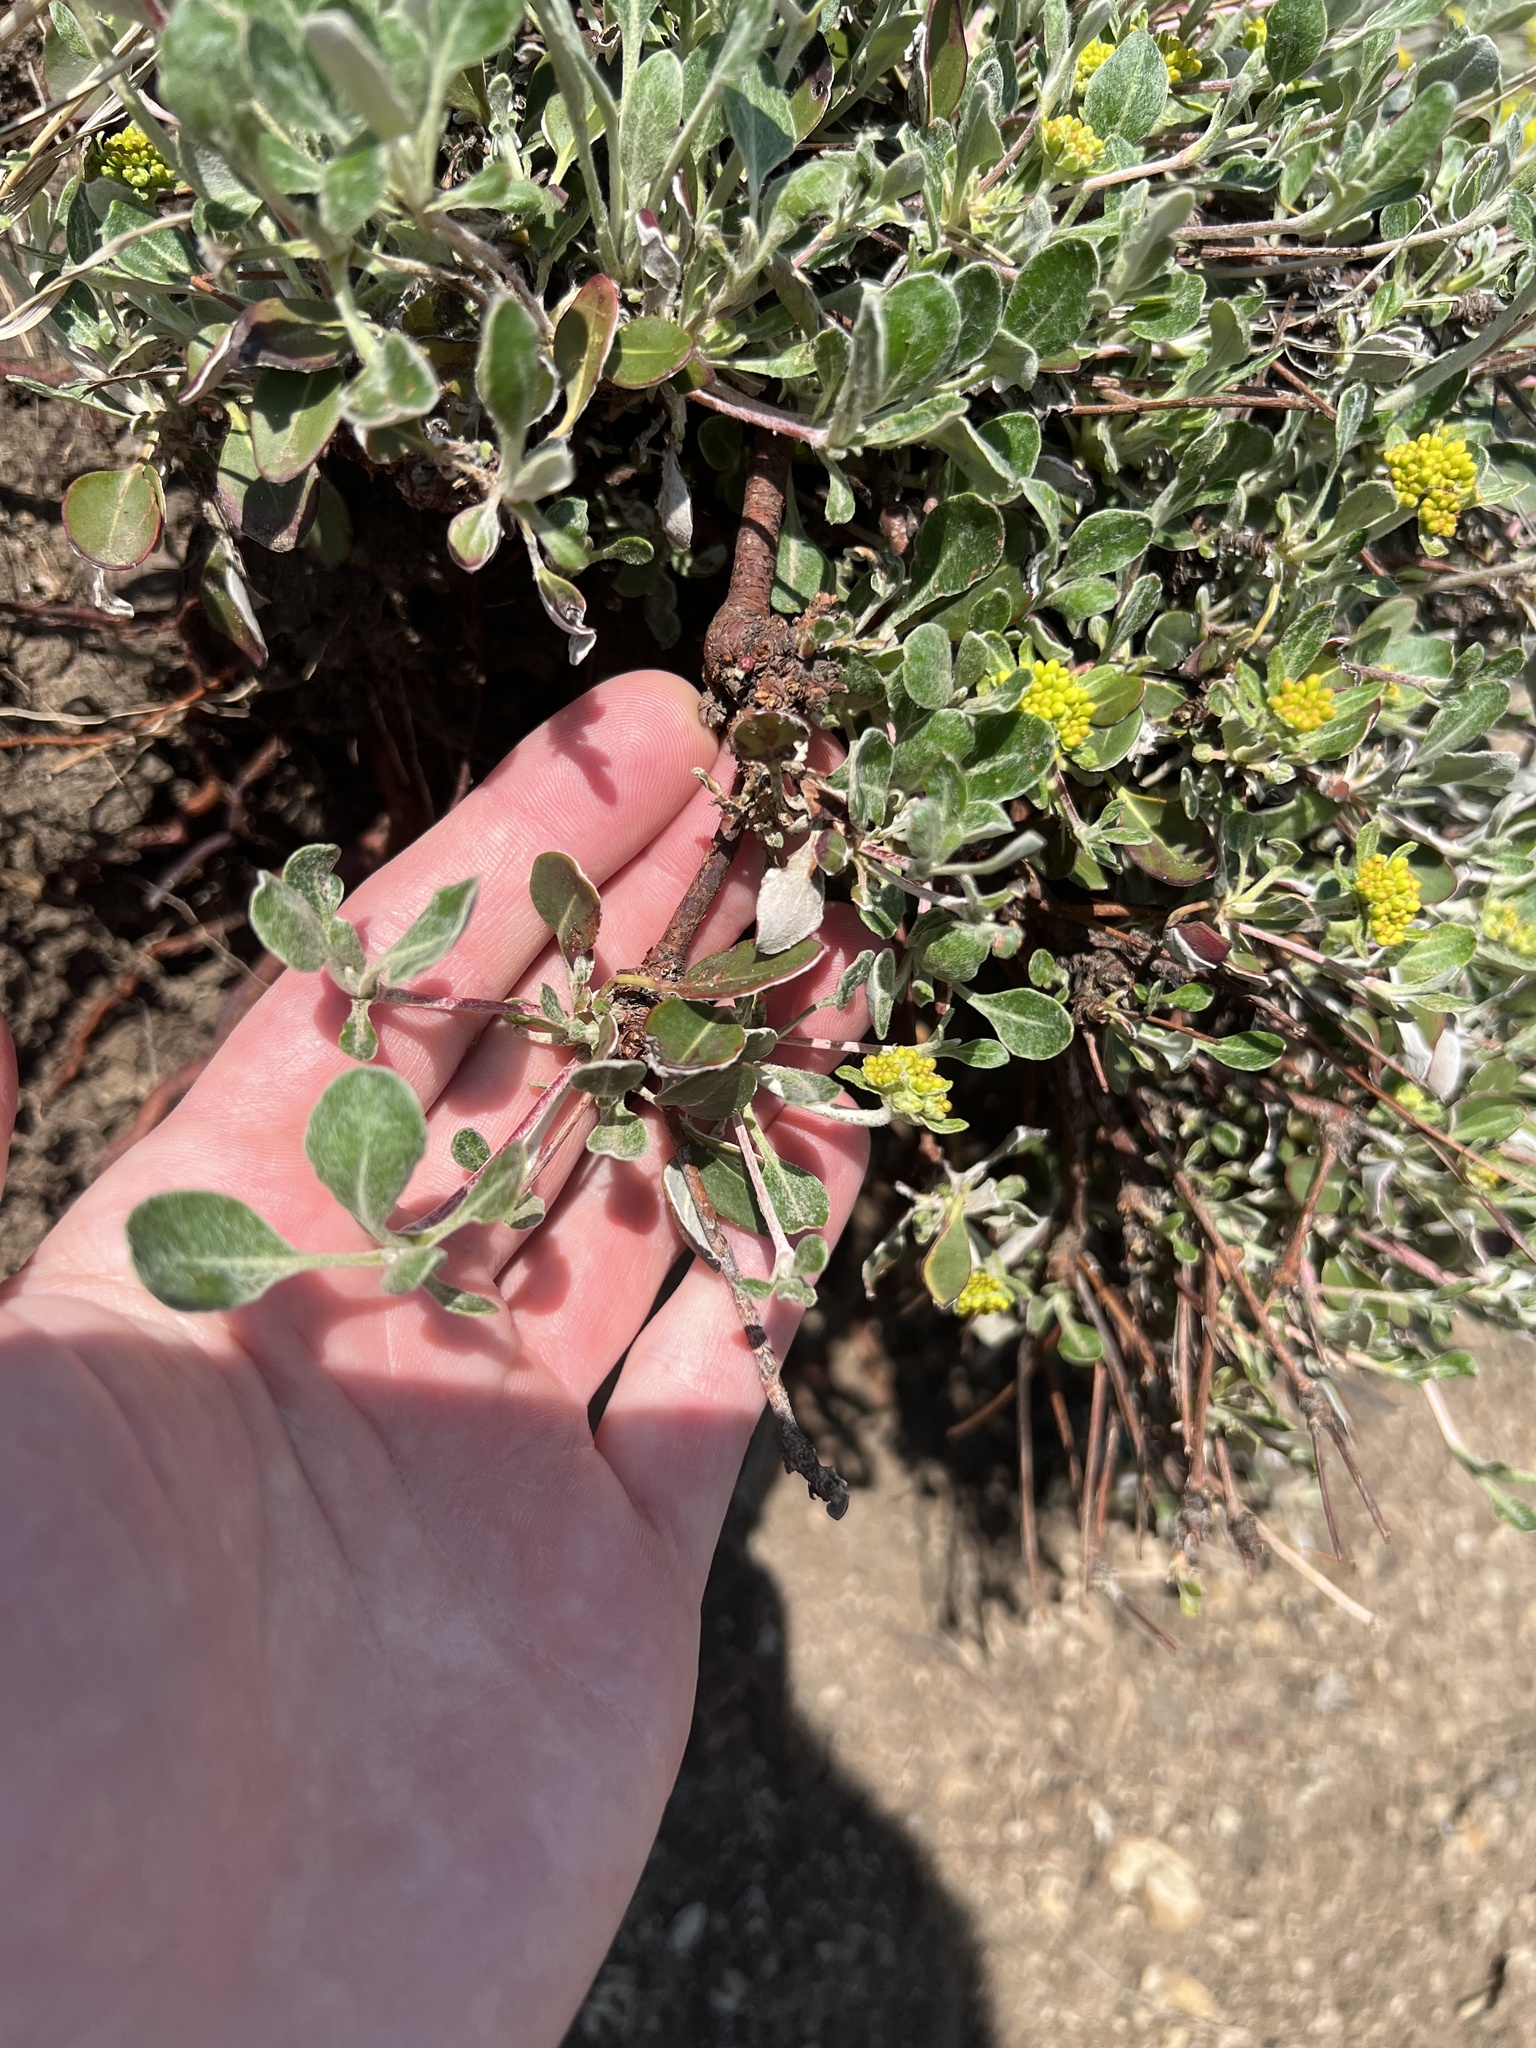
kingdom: Plantae
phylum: Tracheophyta
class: Magnoliopsida
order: Caryophyllales
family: Polygonaceae
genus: Eriogonum
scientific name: Eriogonum umbellatum
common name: Sulfur-buckwheat
